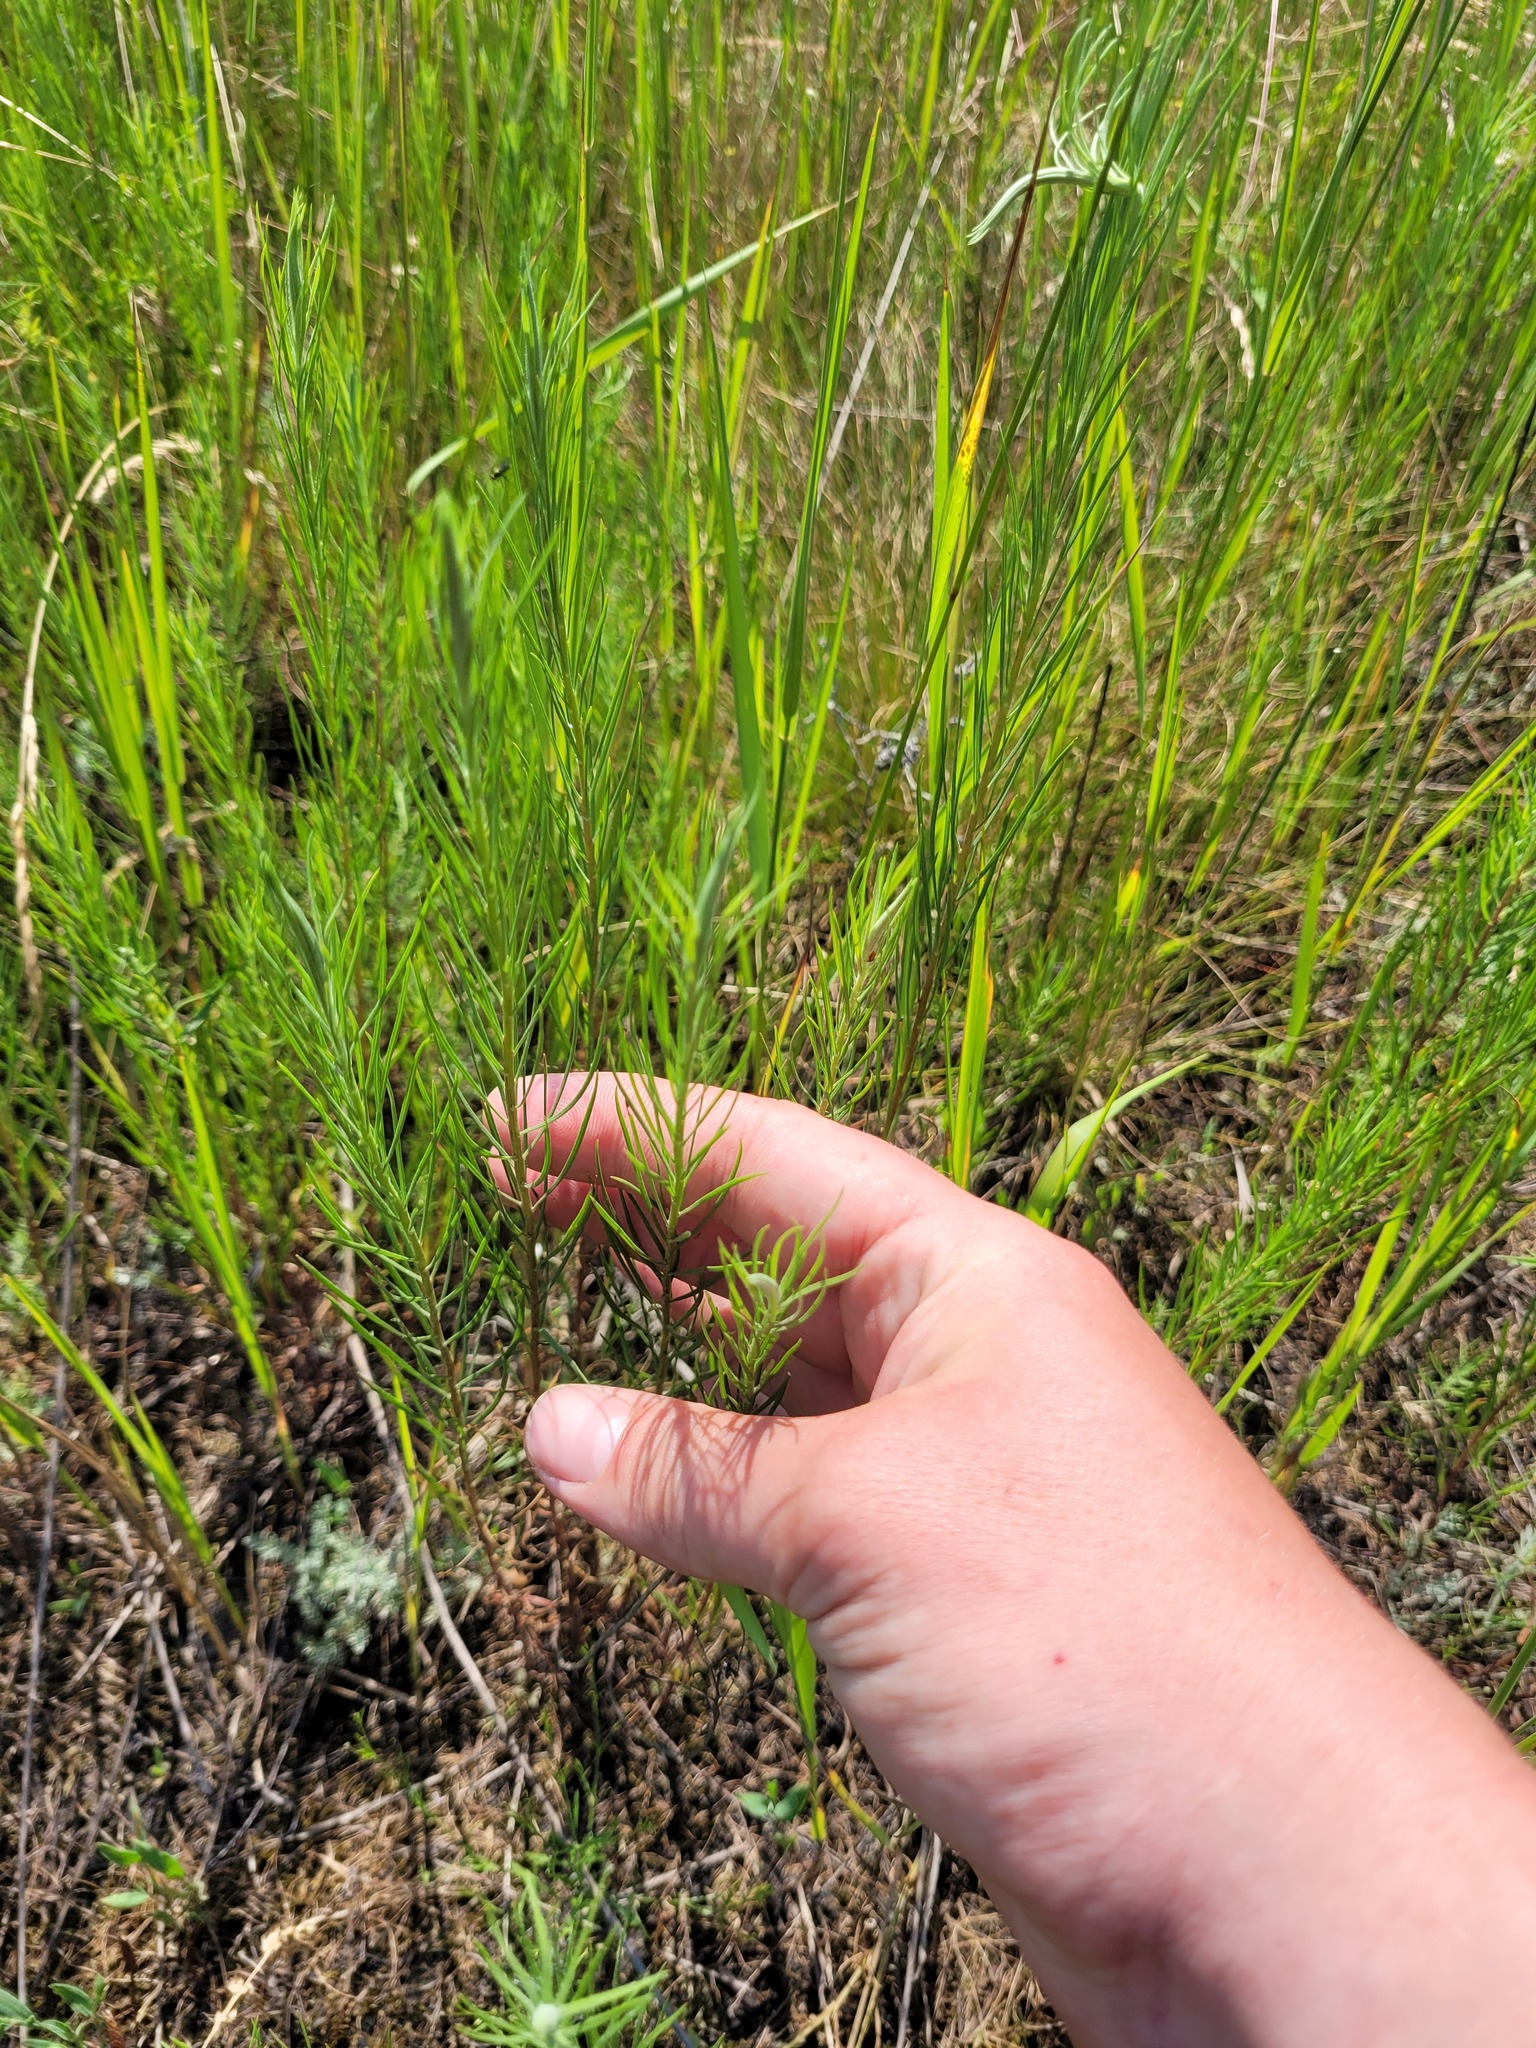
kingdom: Plantae
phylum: Tracheophyta
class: Magnoliopsida
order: Asterales
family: Asteraceae
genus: Galatella
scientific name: Galatella angustissima
